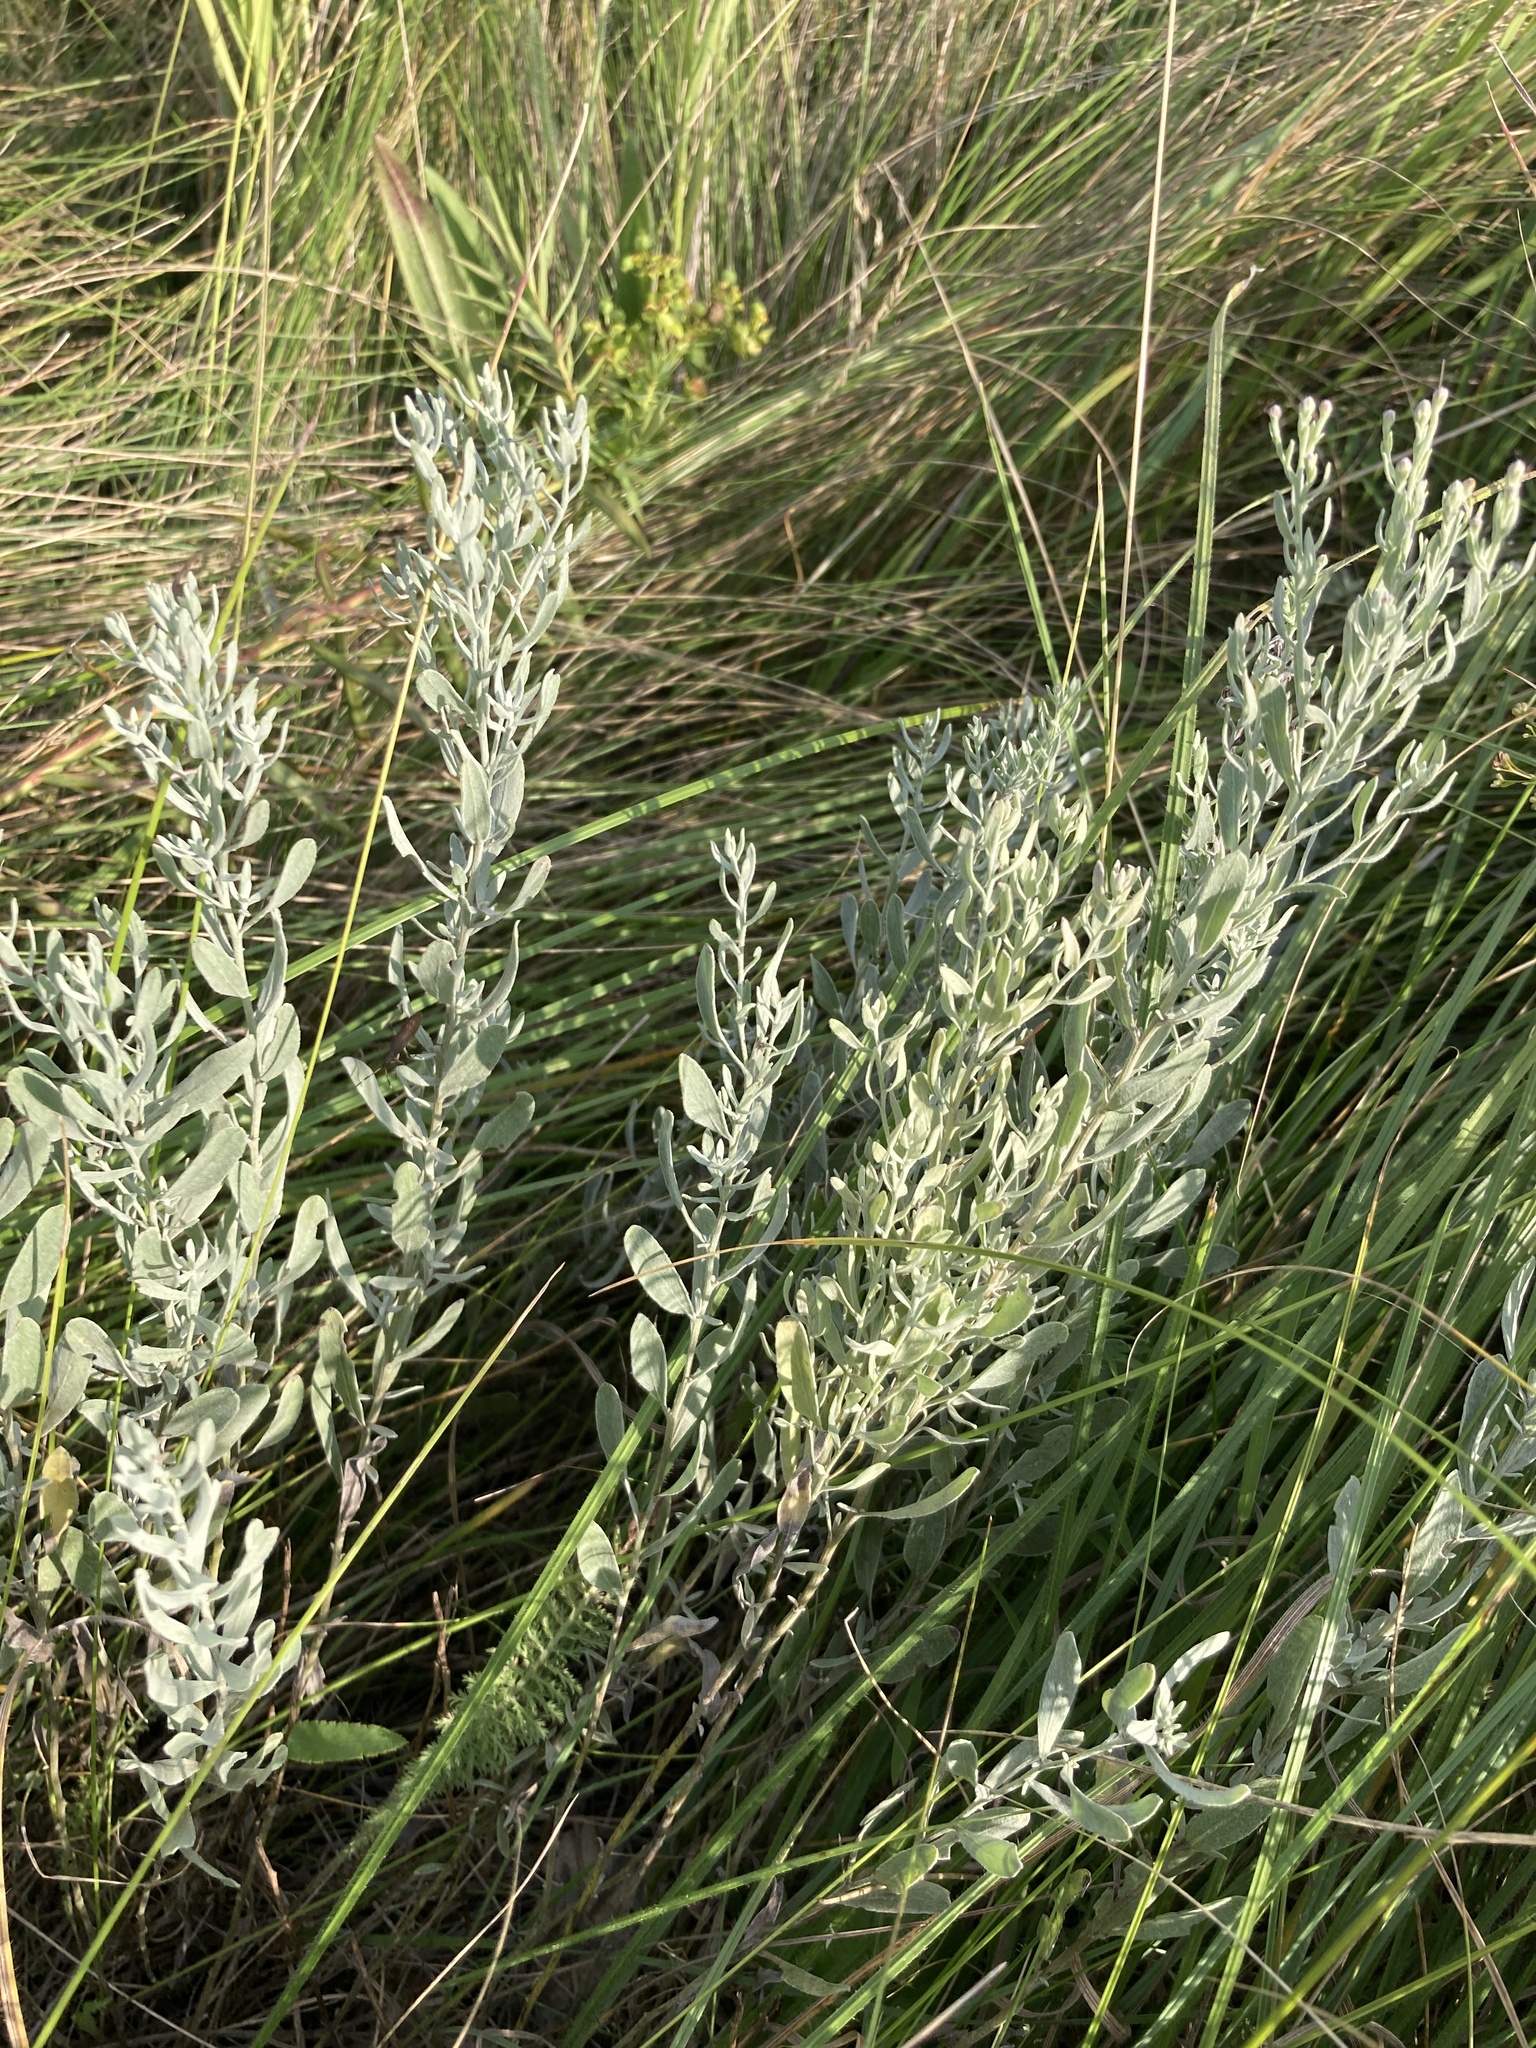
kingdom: Plantae
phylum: Tracheophyta
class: Magnoliopsida
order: Asterales
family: Asteraceae
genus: Galatella
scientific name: Galatella villosa
